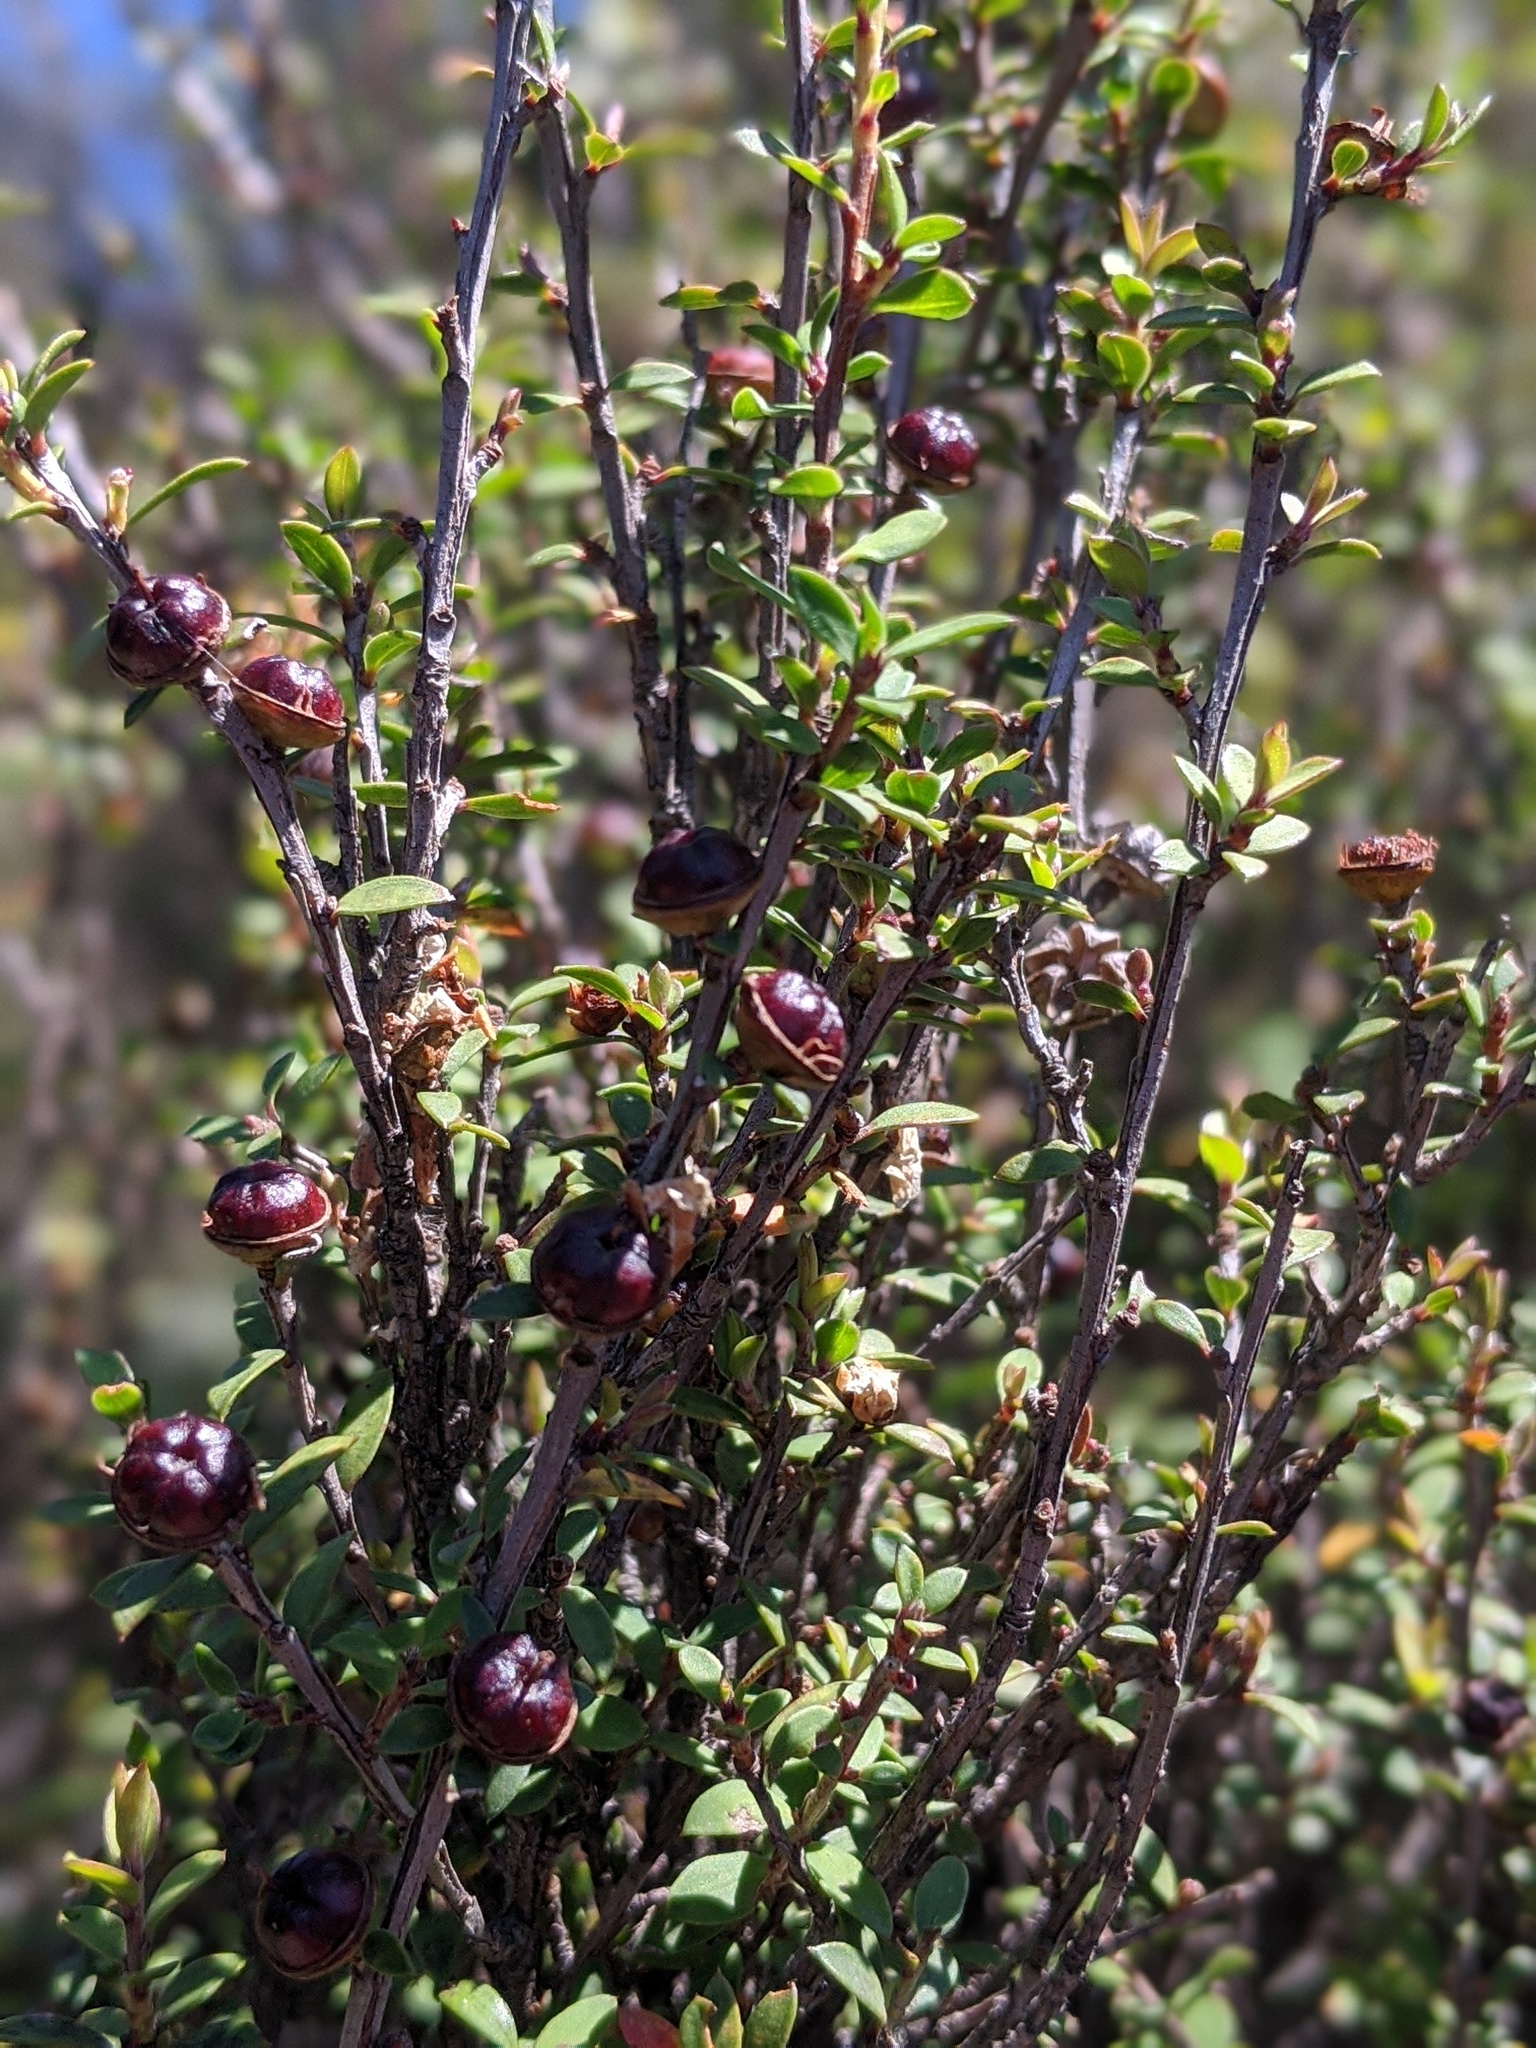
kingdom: Plantae
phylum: Tracheophyta
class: Magnoliopsida
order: Myrtales
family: Myrtaceae
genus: Leptospermum
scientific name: Leptospermum scoparium
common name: Broom tea-tree
